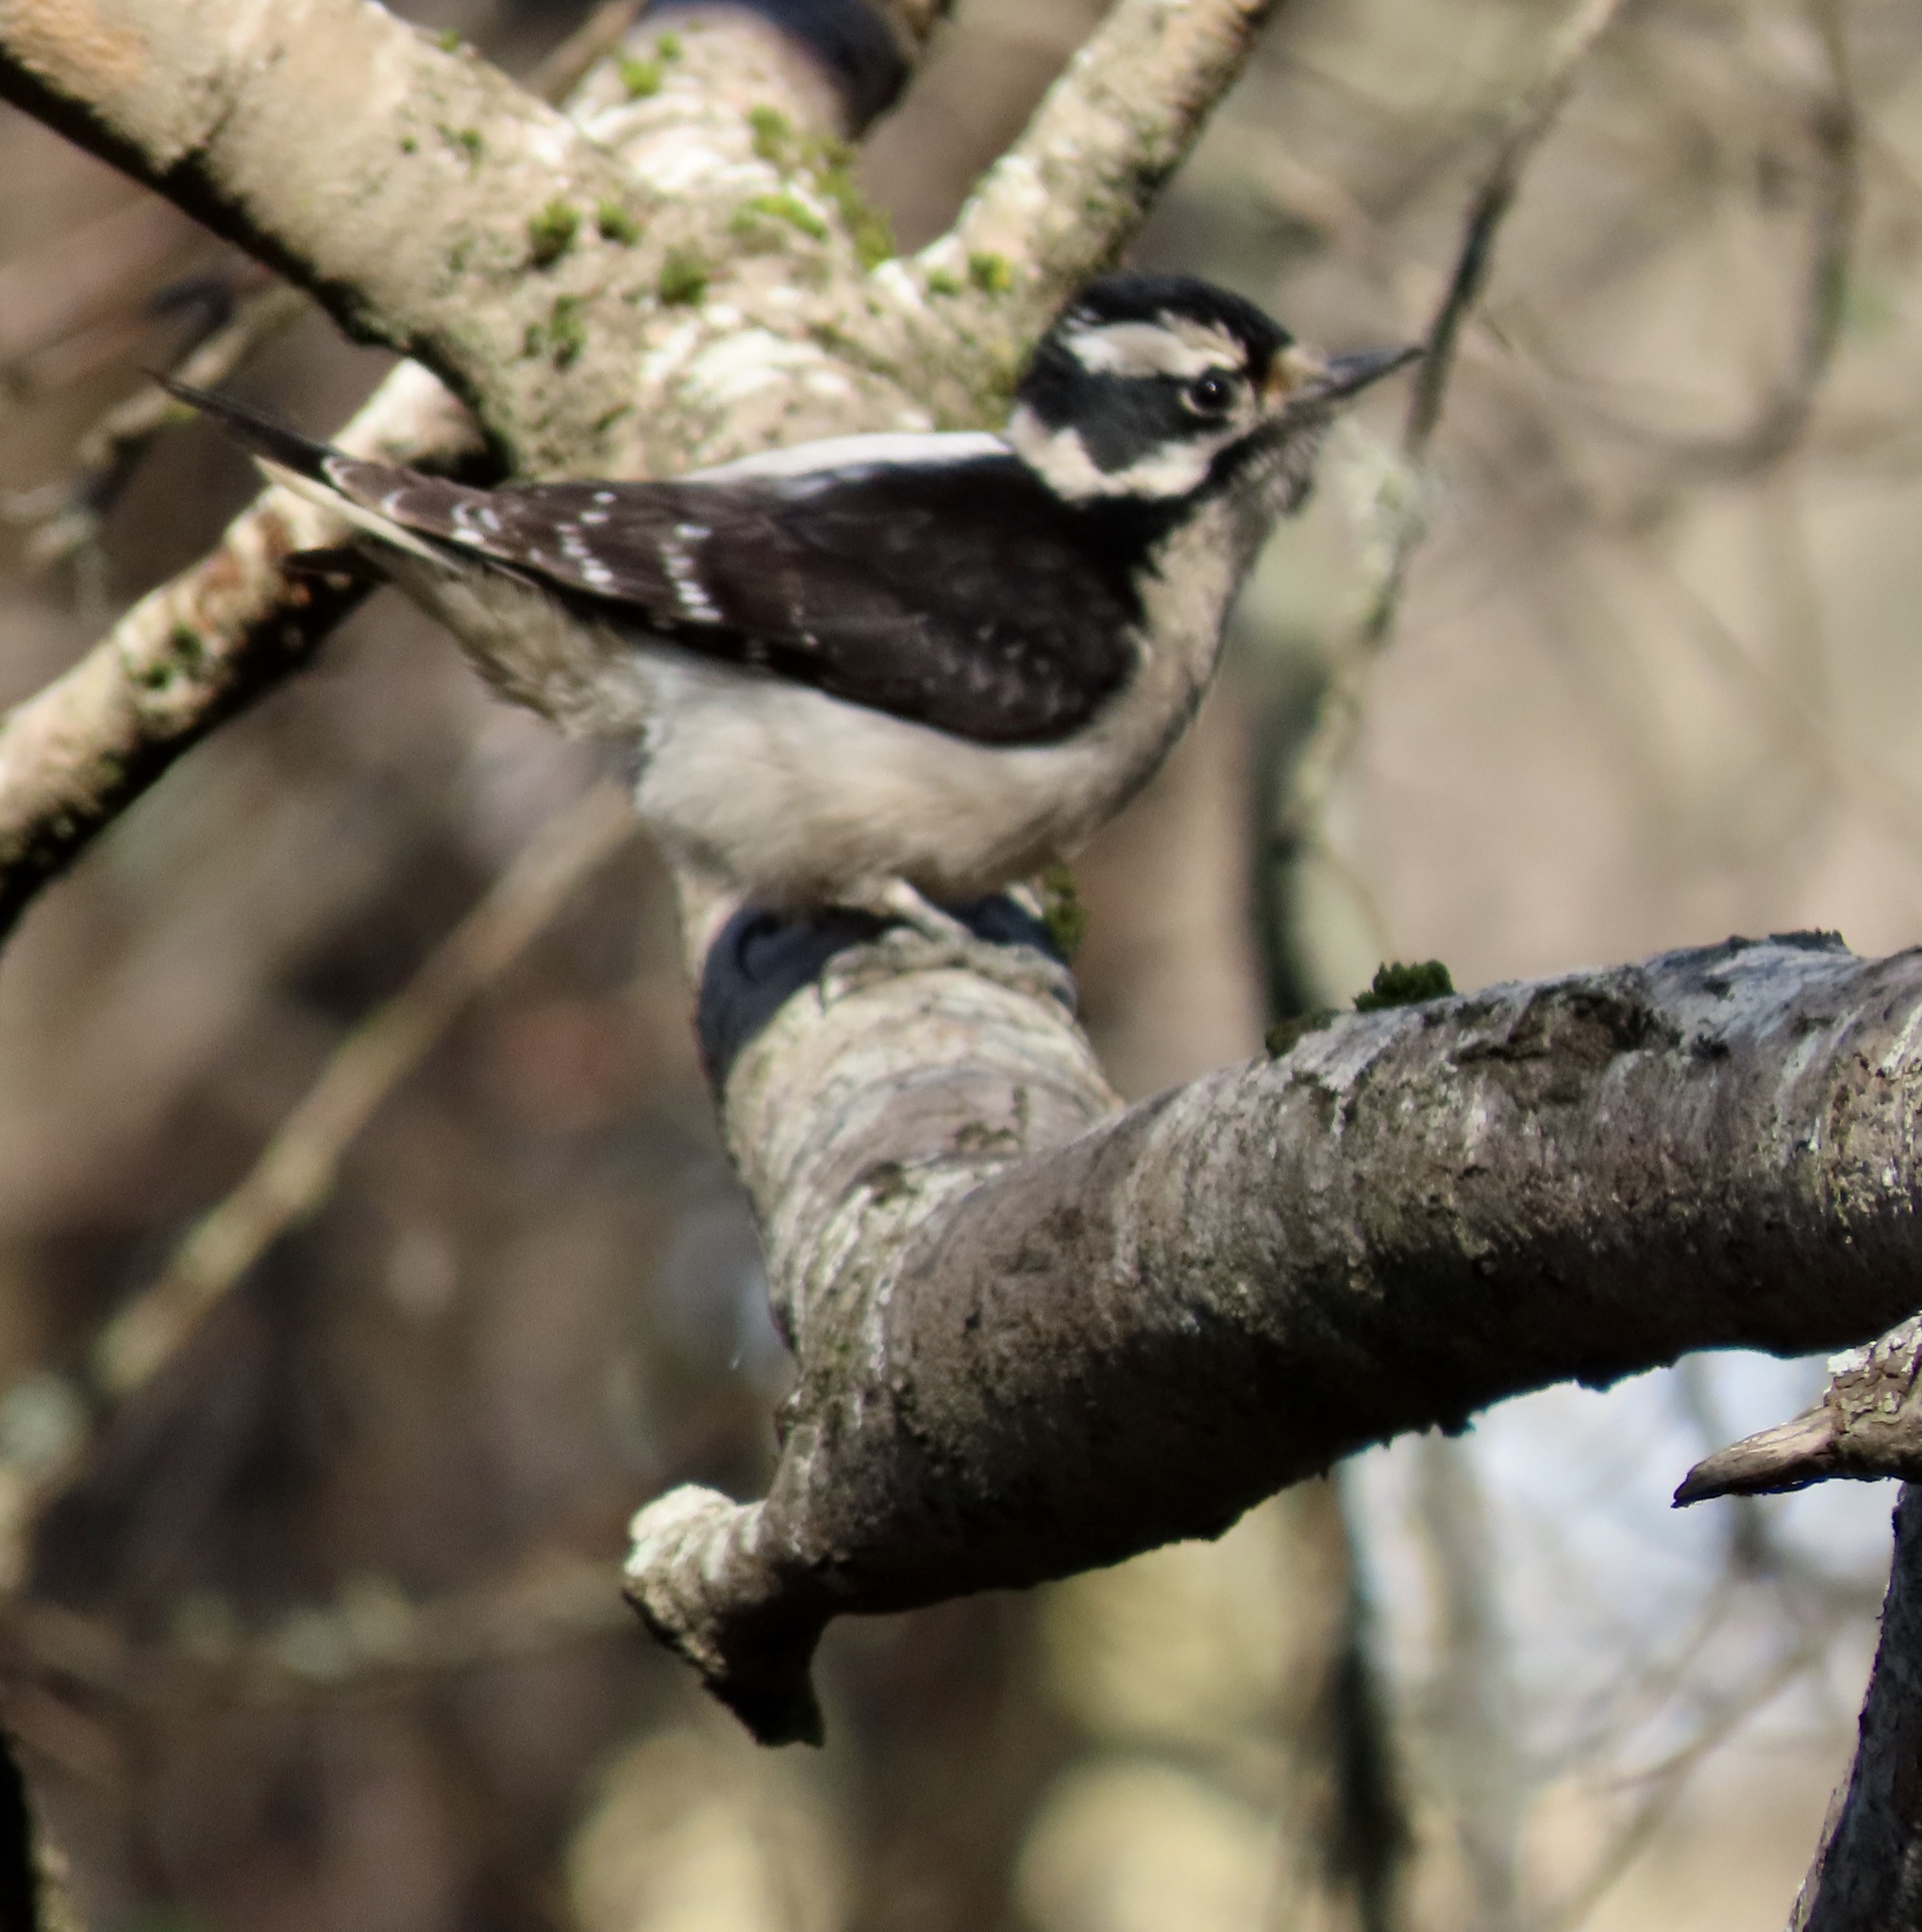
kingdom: Animalia
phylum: Chordata
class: Aves
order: Piciformes
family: Picidae
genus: Dryobates
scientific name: Dryobates pubescens
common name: Downy woodpecker
